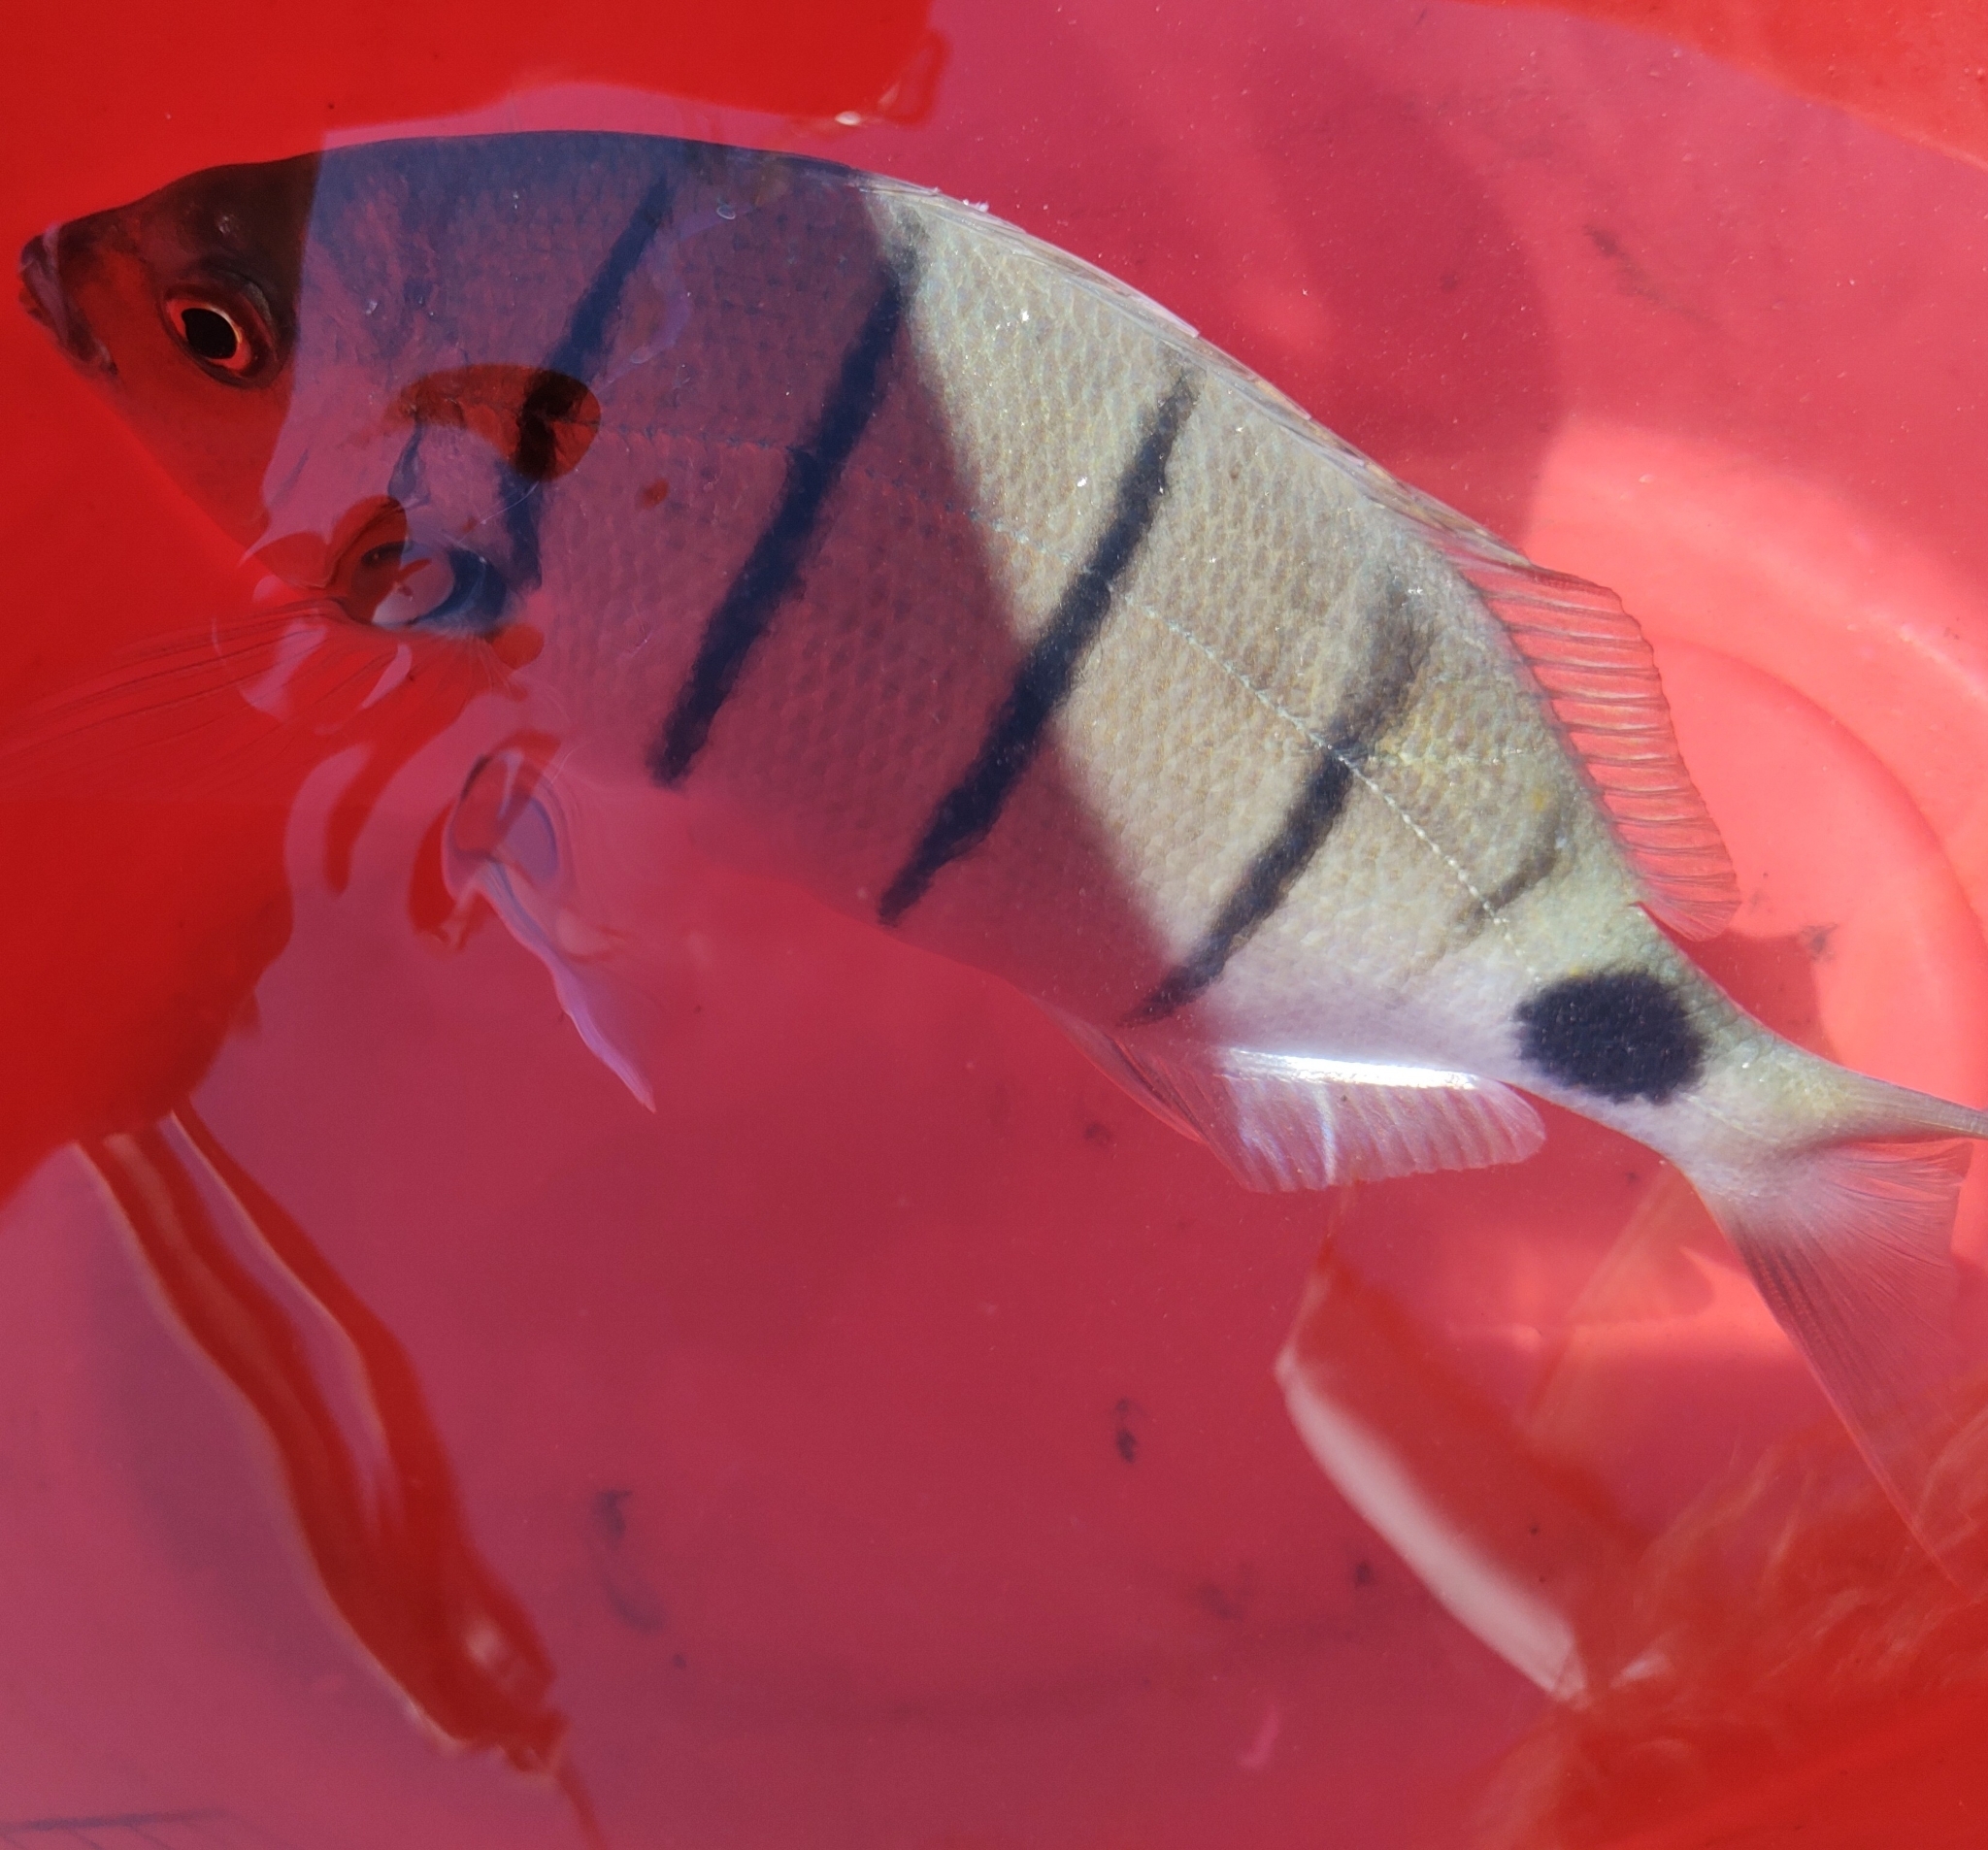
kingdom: Animalia
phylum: Chordata
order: Perciformes
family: Sparidae
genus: Diplodus
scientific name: Diplodus lineatus
